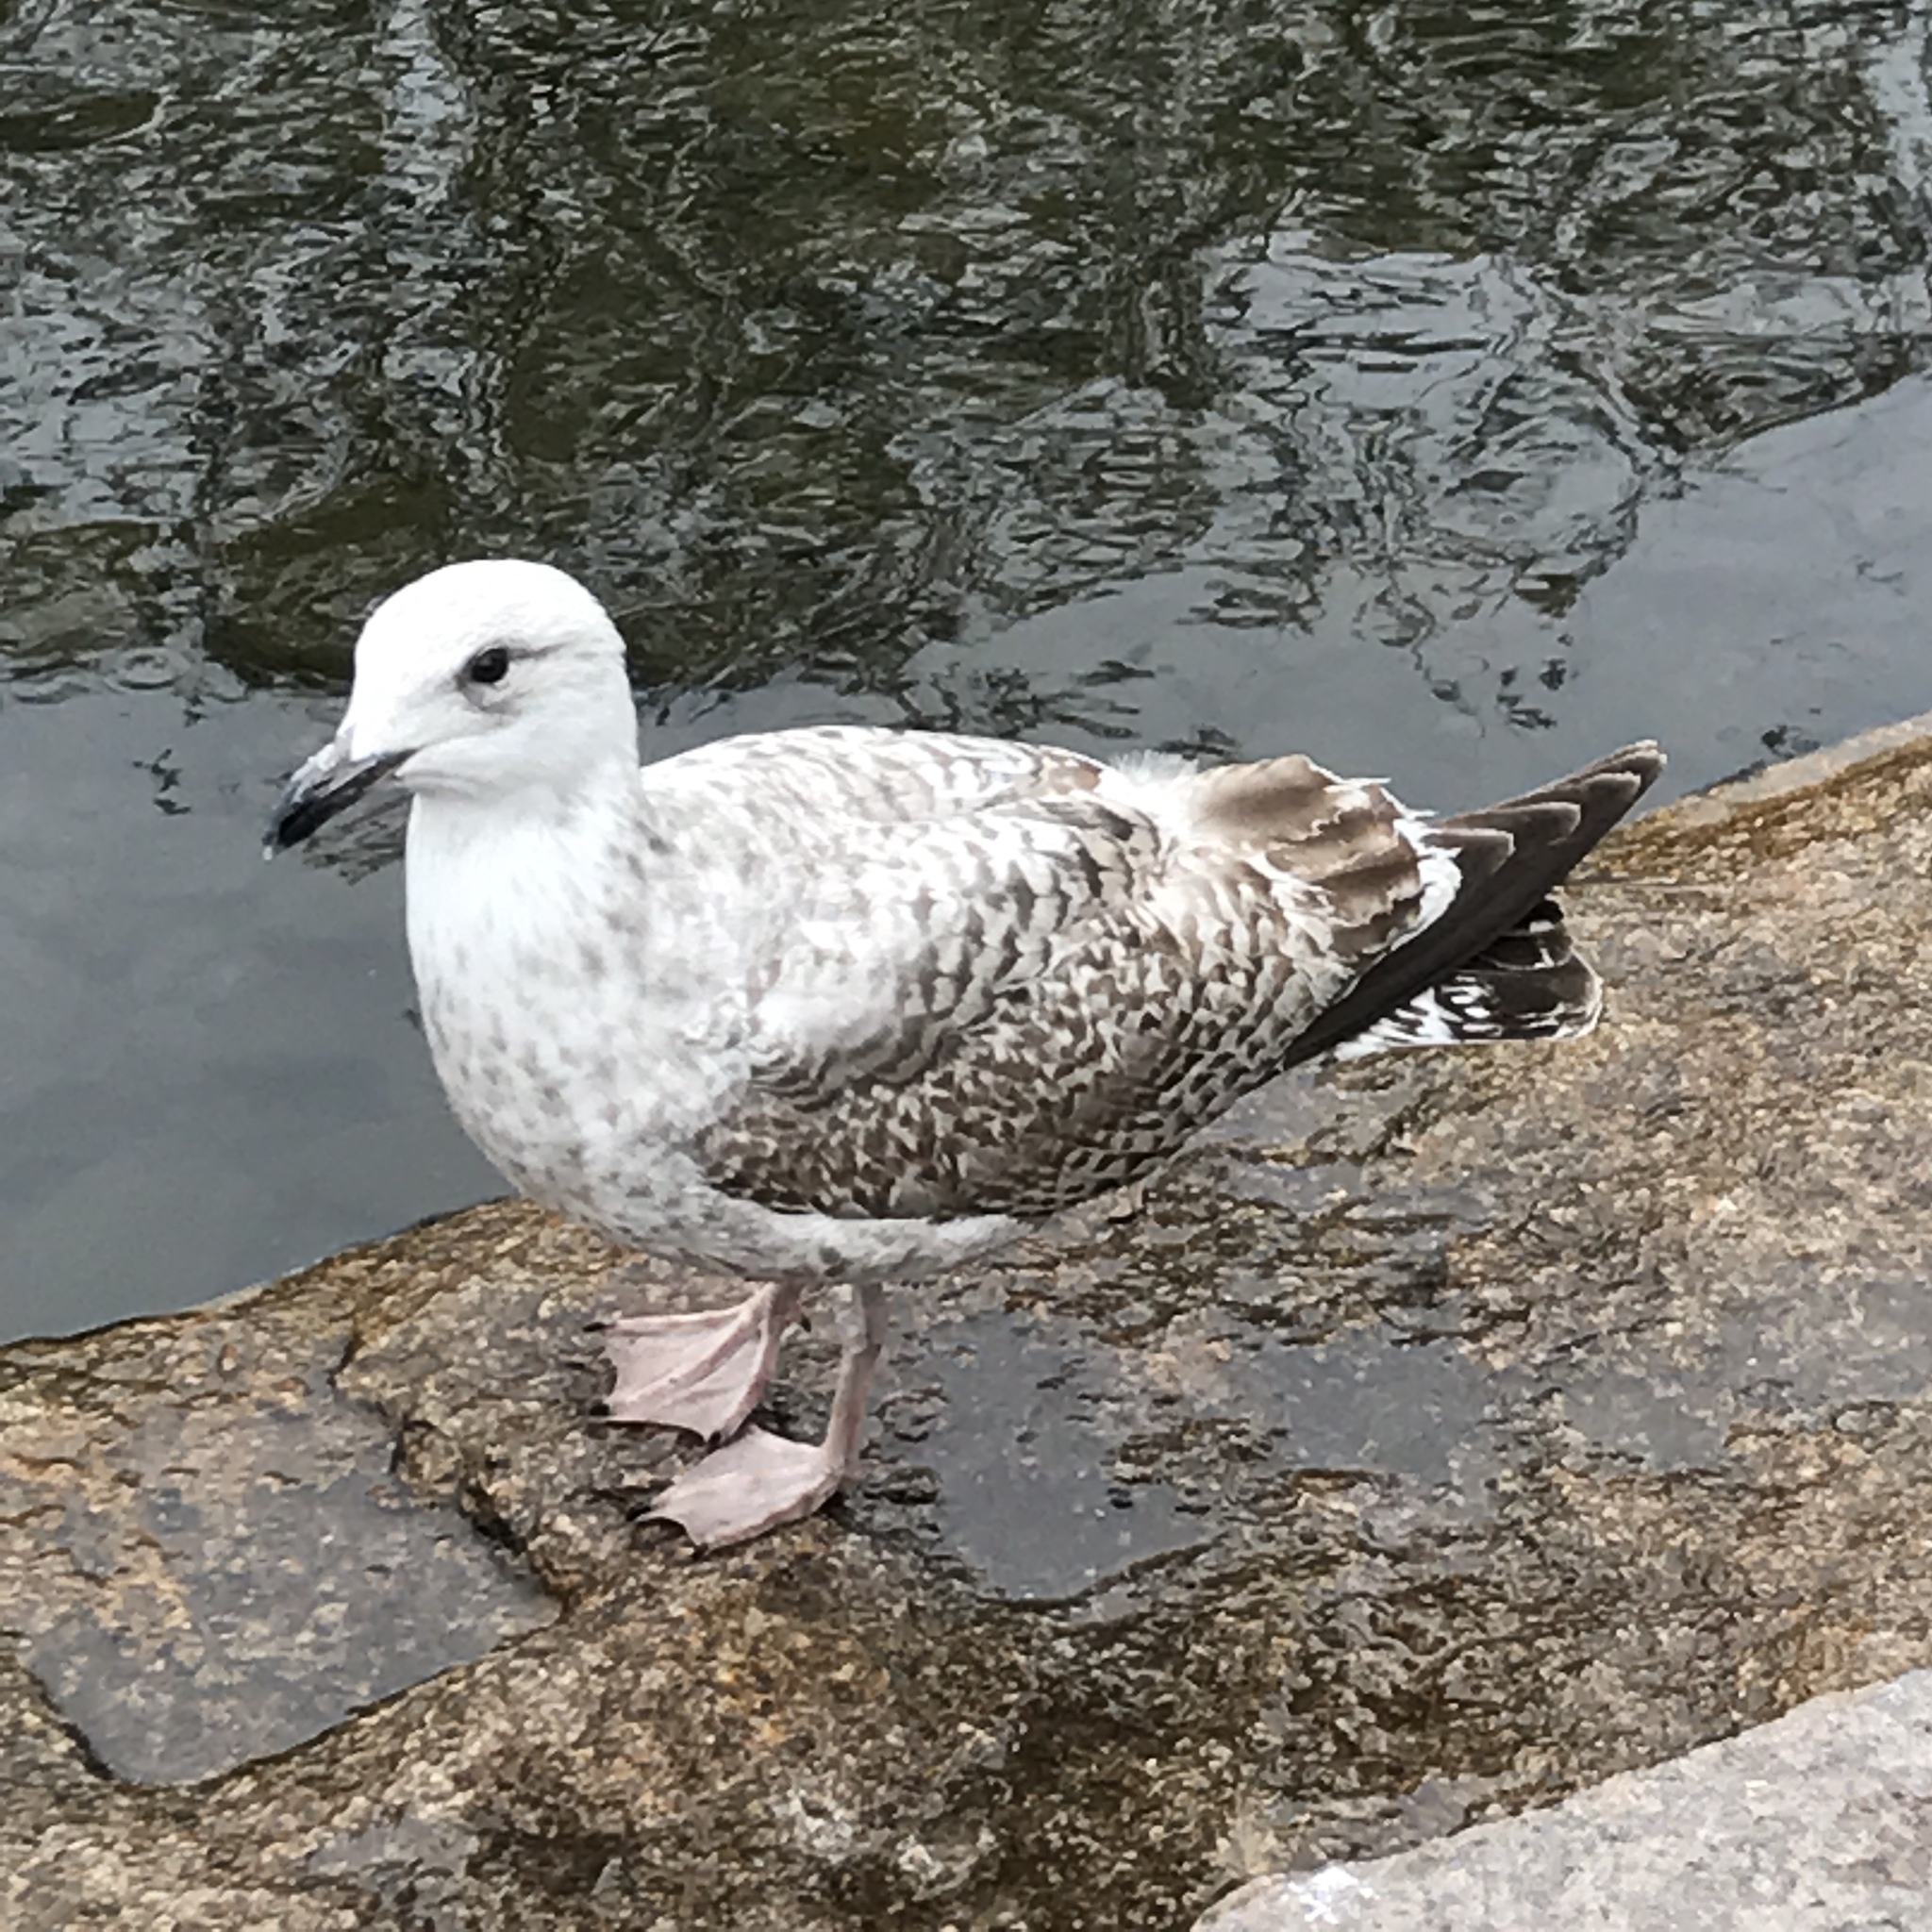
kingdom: Animalia
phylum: Chordata
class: Aves
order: Charadriiformes
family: Laridae
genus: Larus
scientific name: Larus argentatus
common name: Herring gull
